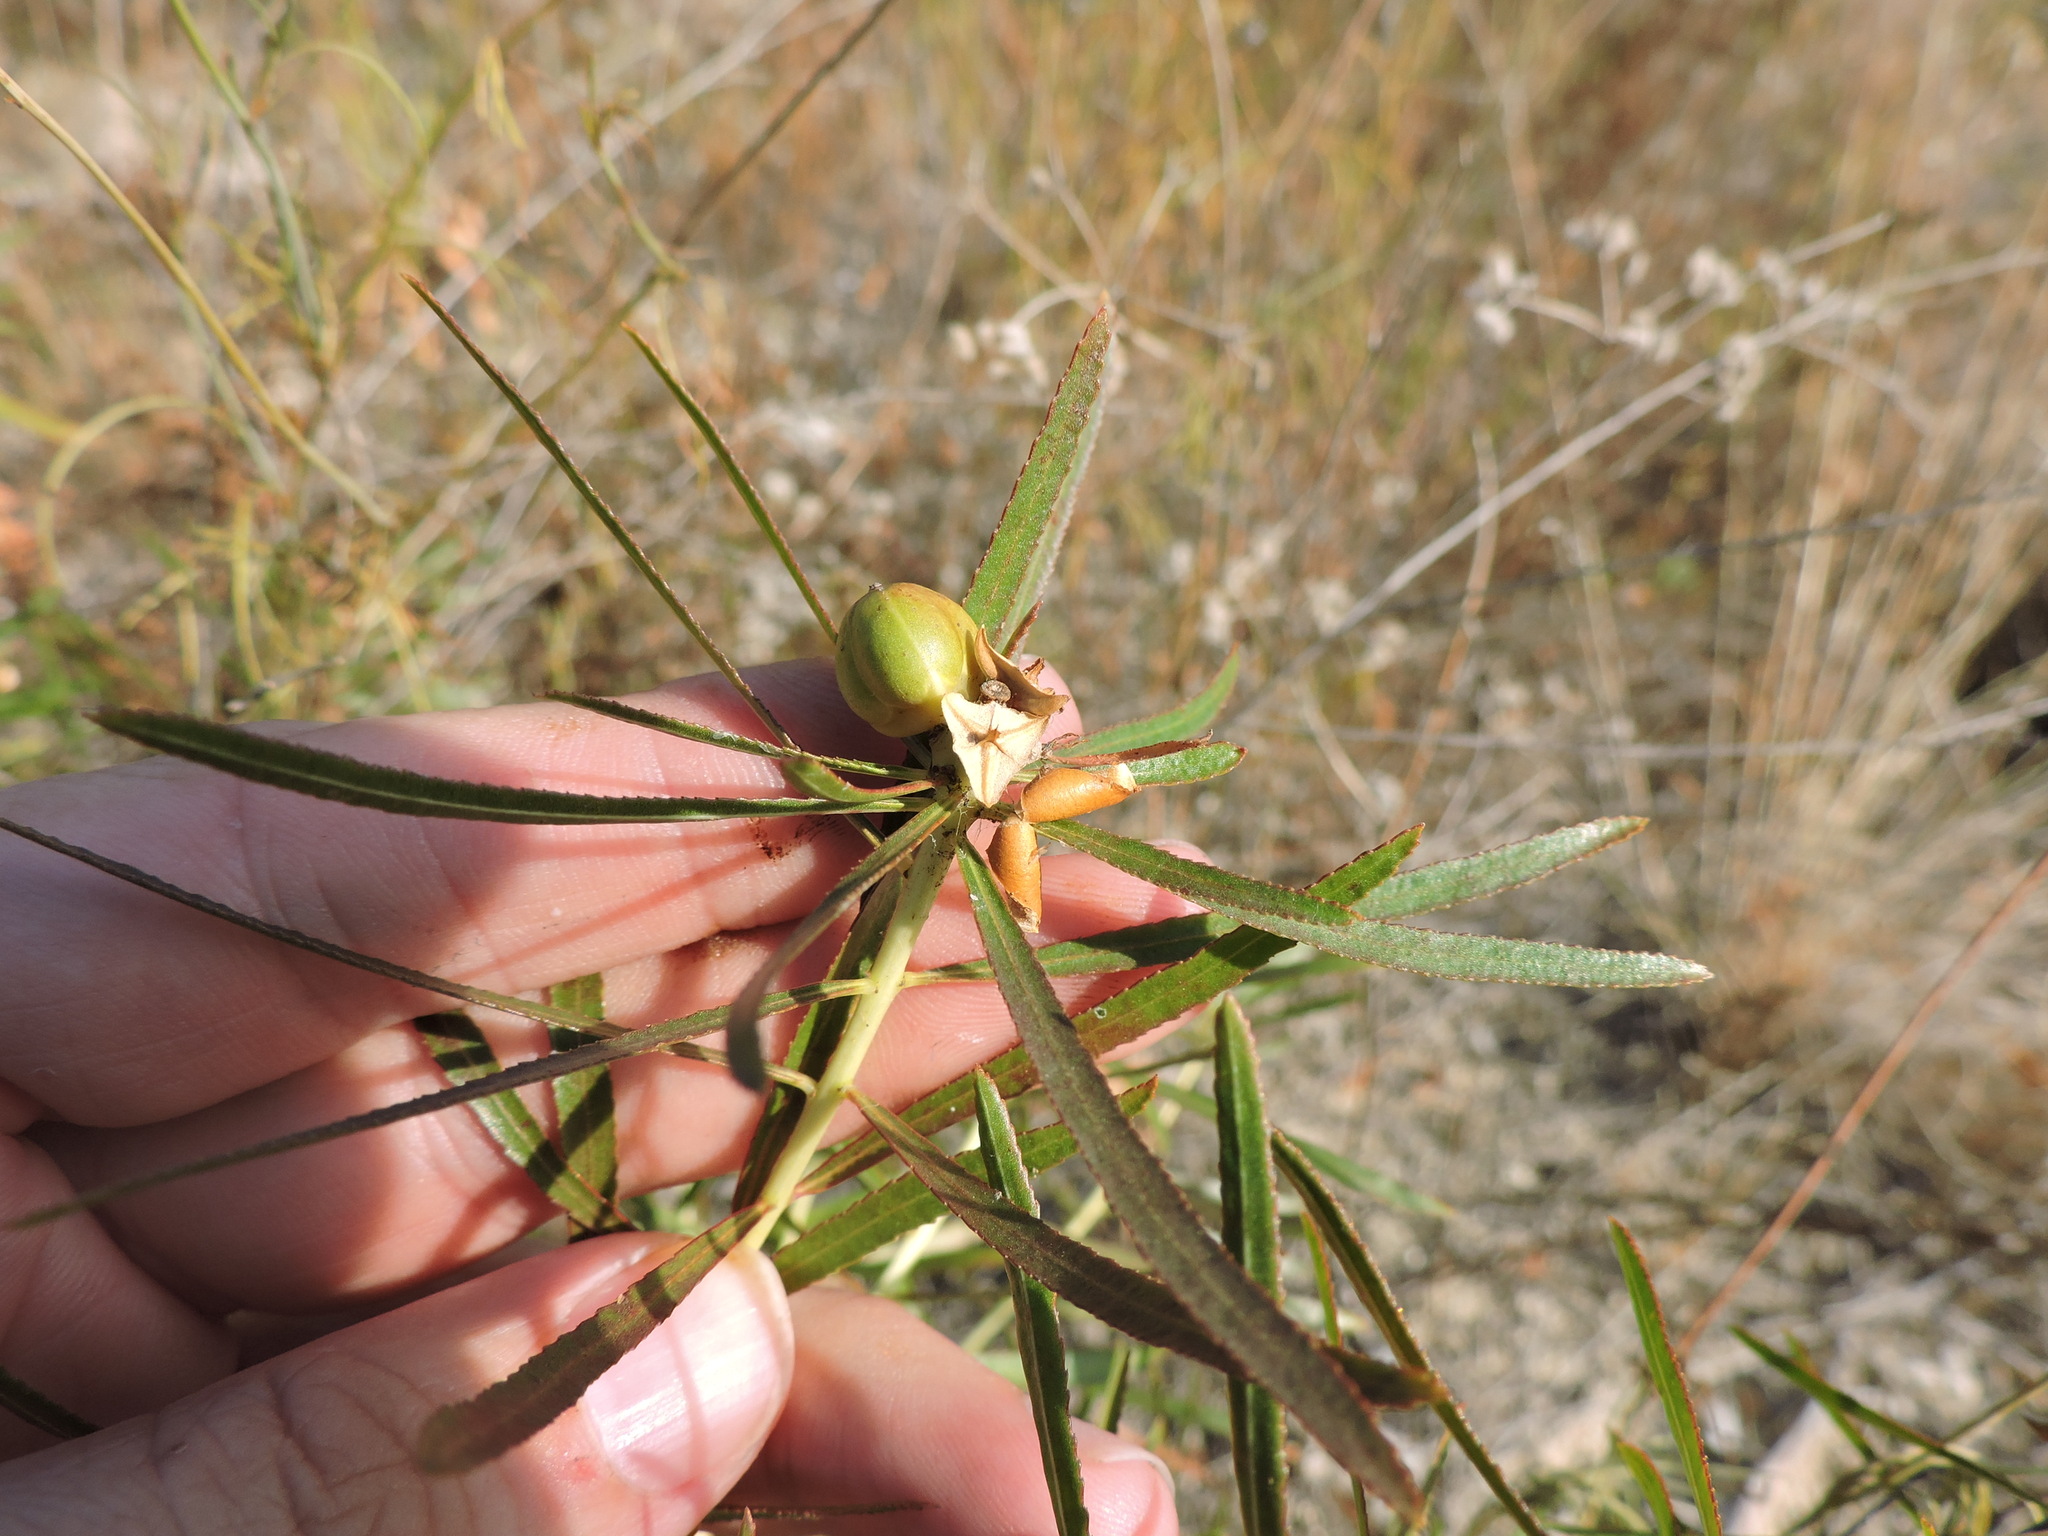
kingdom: Plantae
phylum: Tracheophyta
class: Magnoliopsida
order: Malpighiales
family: Euphorbiaceae
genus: Stillingia
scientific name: Stillingia texana
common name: Texas stillingia
